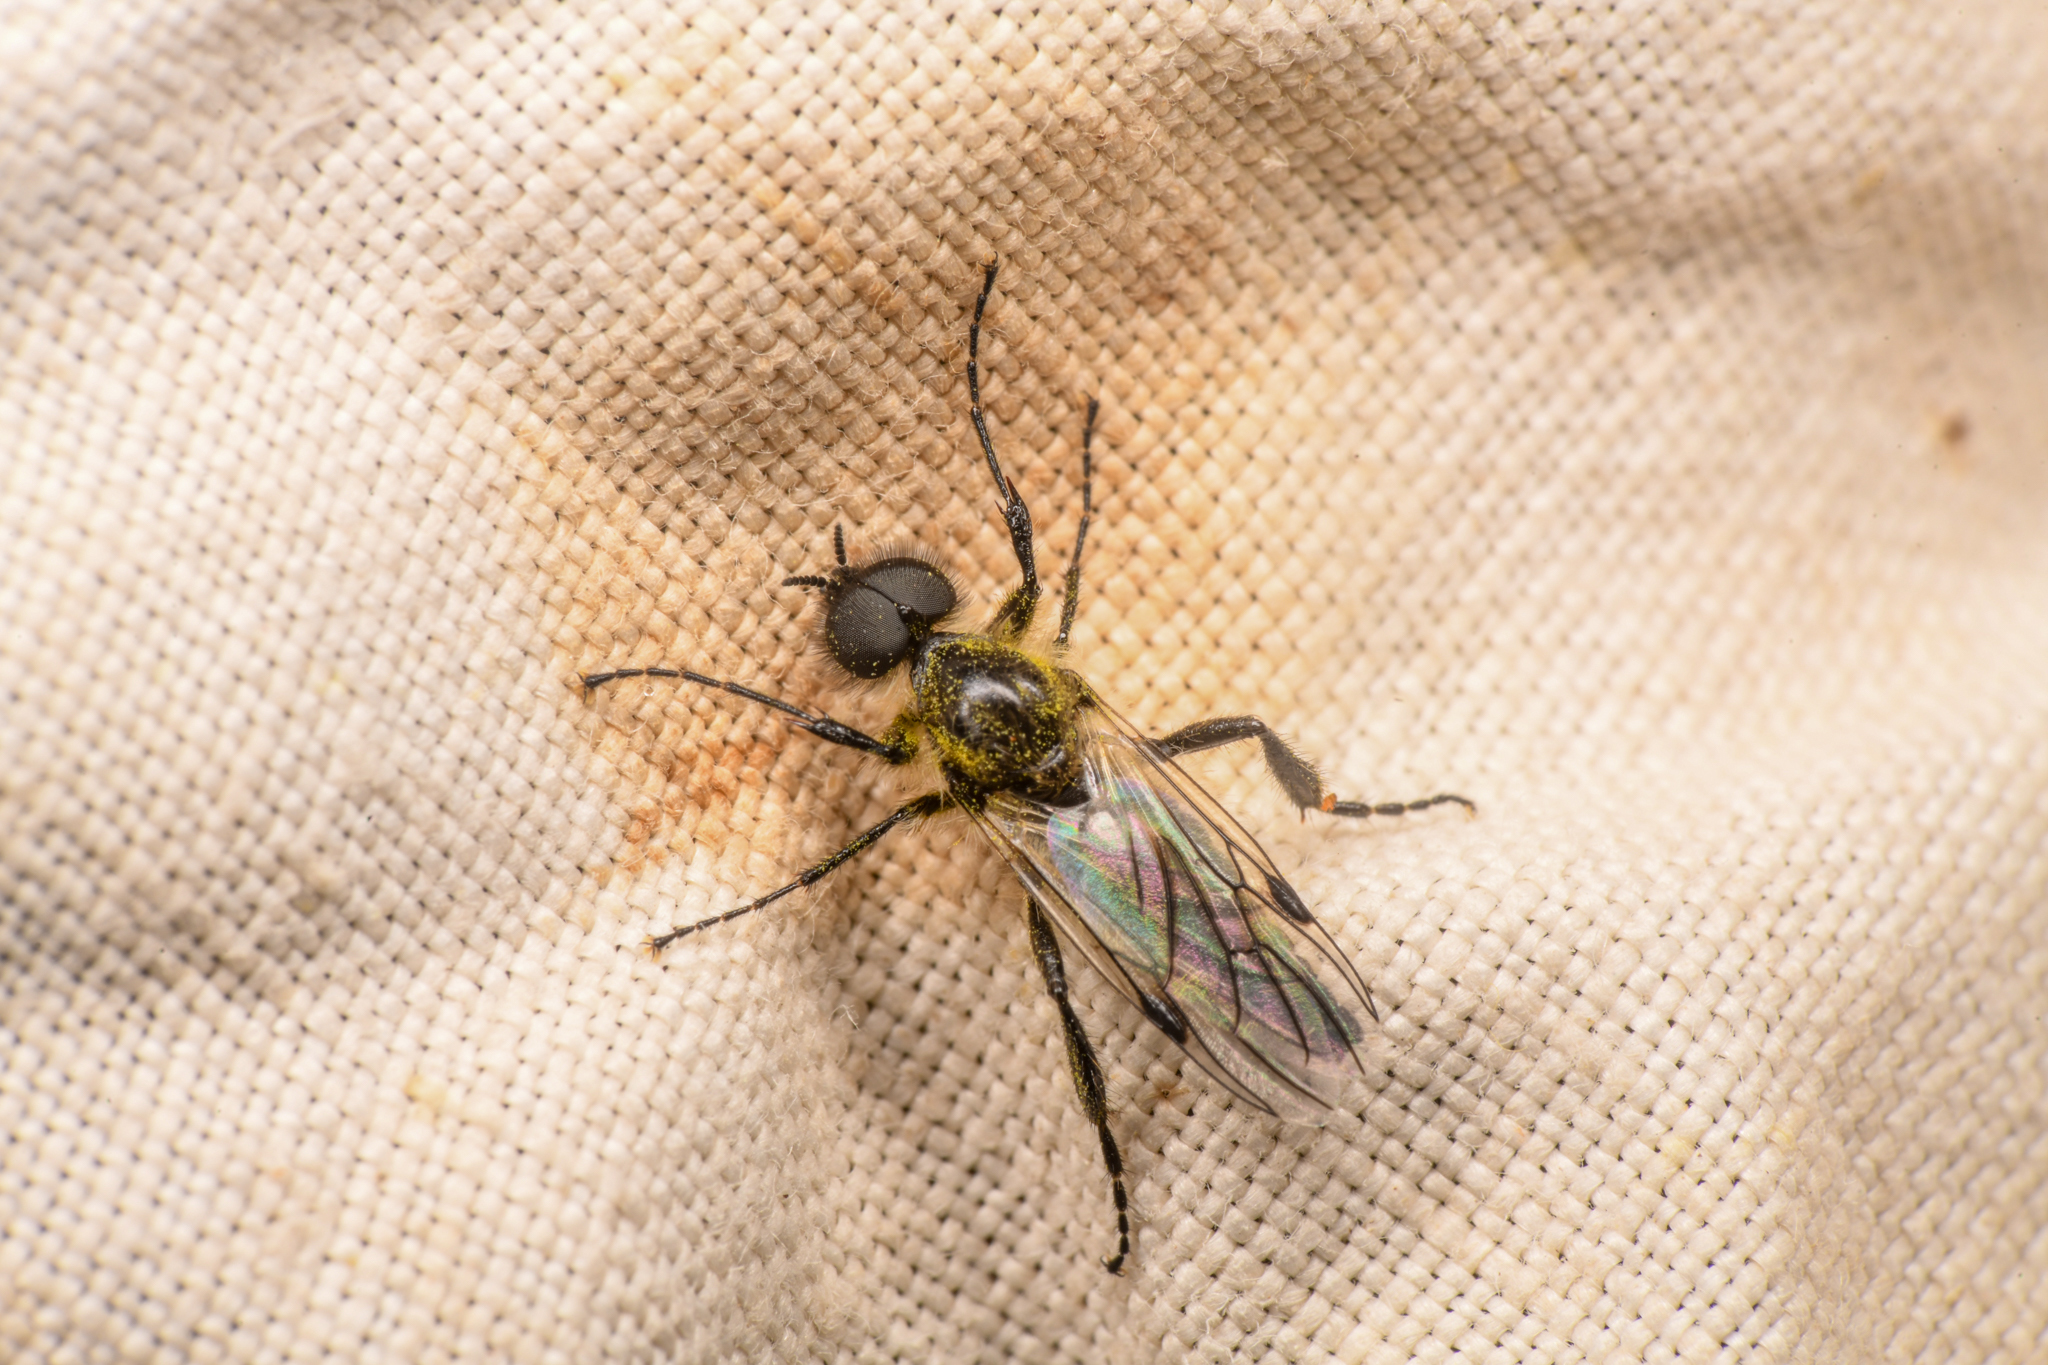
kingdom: Animalia
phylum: Arthropoda
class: Insecta
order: Diptera
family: Bibionidae
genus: Bibio
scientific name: Bibio albipennis
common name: White-winged march fly
